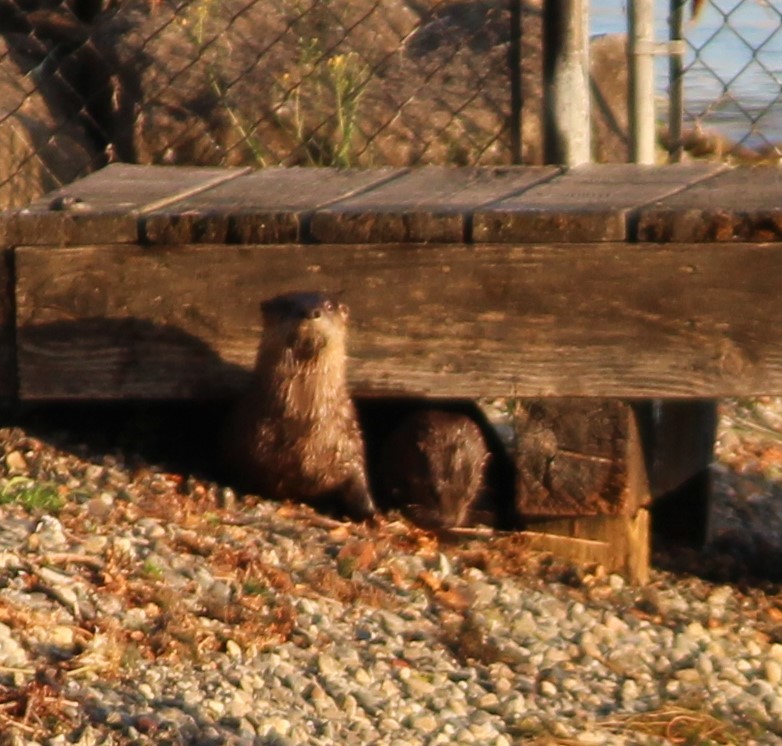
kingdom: Animalia
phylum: Chordata
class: Mammalia
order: Carnivora
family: Mustelidae
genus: Lontra
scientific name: Lontra canadensis
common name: North american river otter
